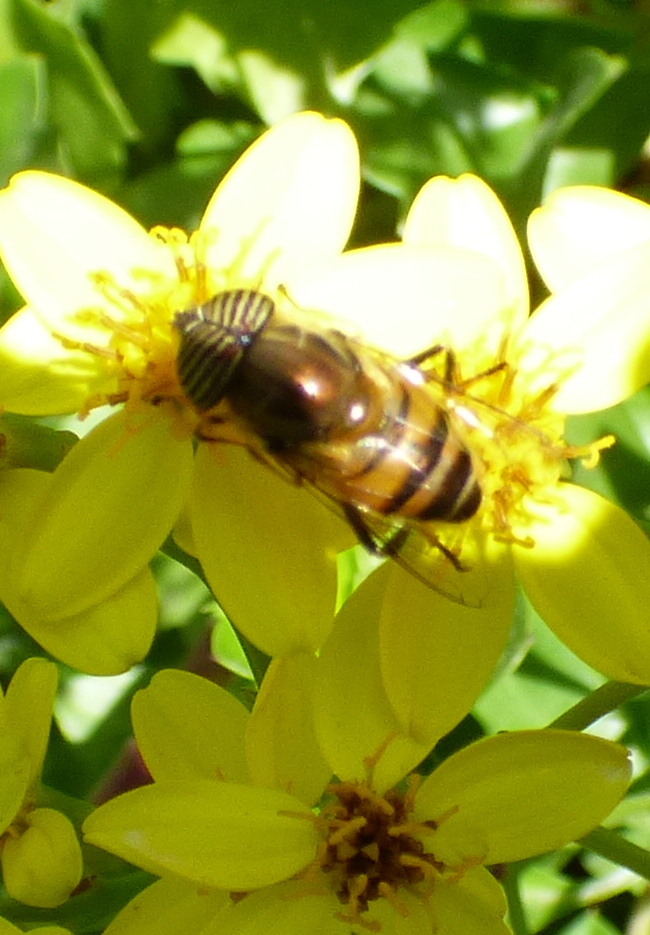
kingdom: Animalia
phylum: Arthropoda
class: Insecta
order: Diptera
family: Syrphidae
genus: Eristalinus
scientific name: Eristalinus taeniops
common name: Syrphid fly
